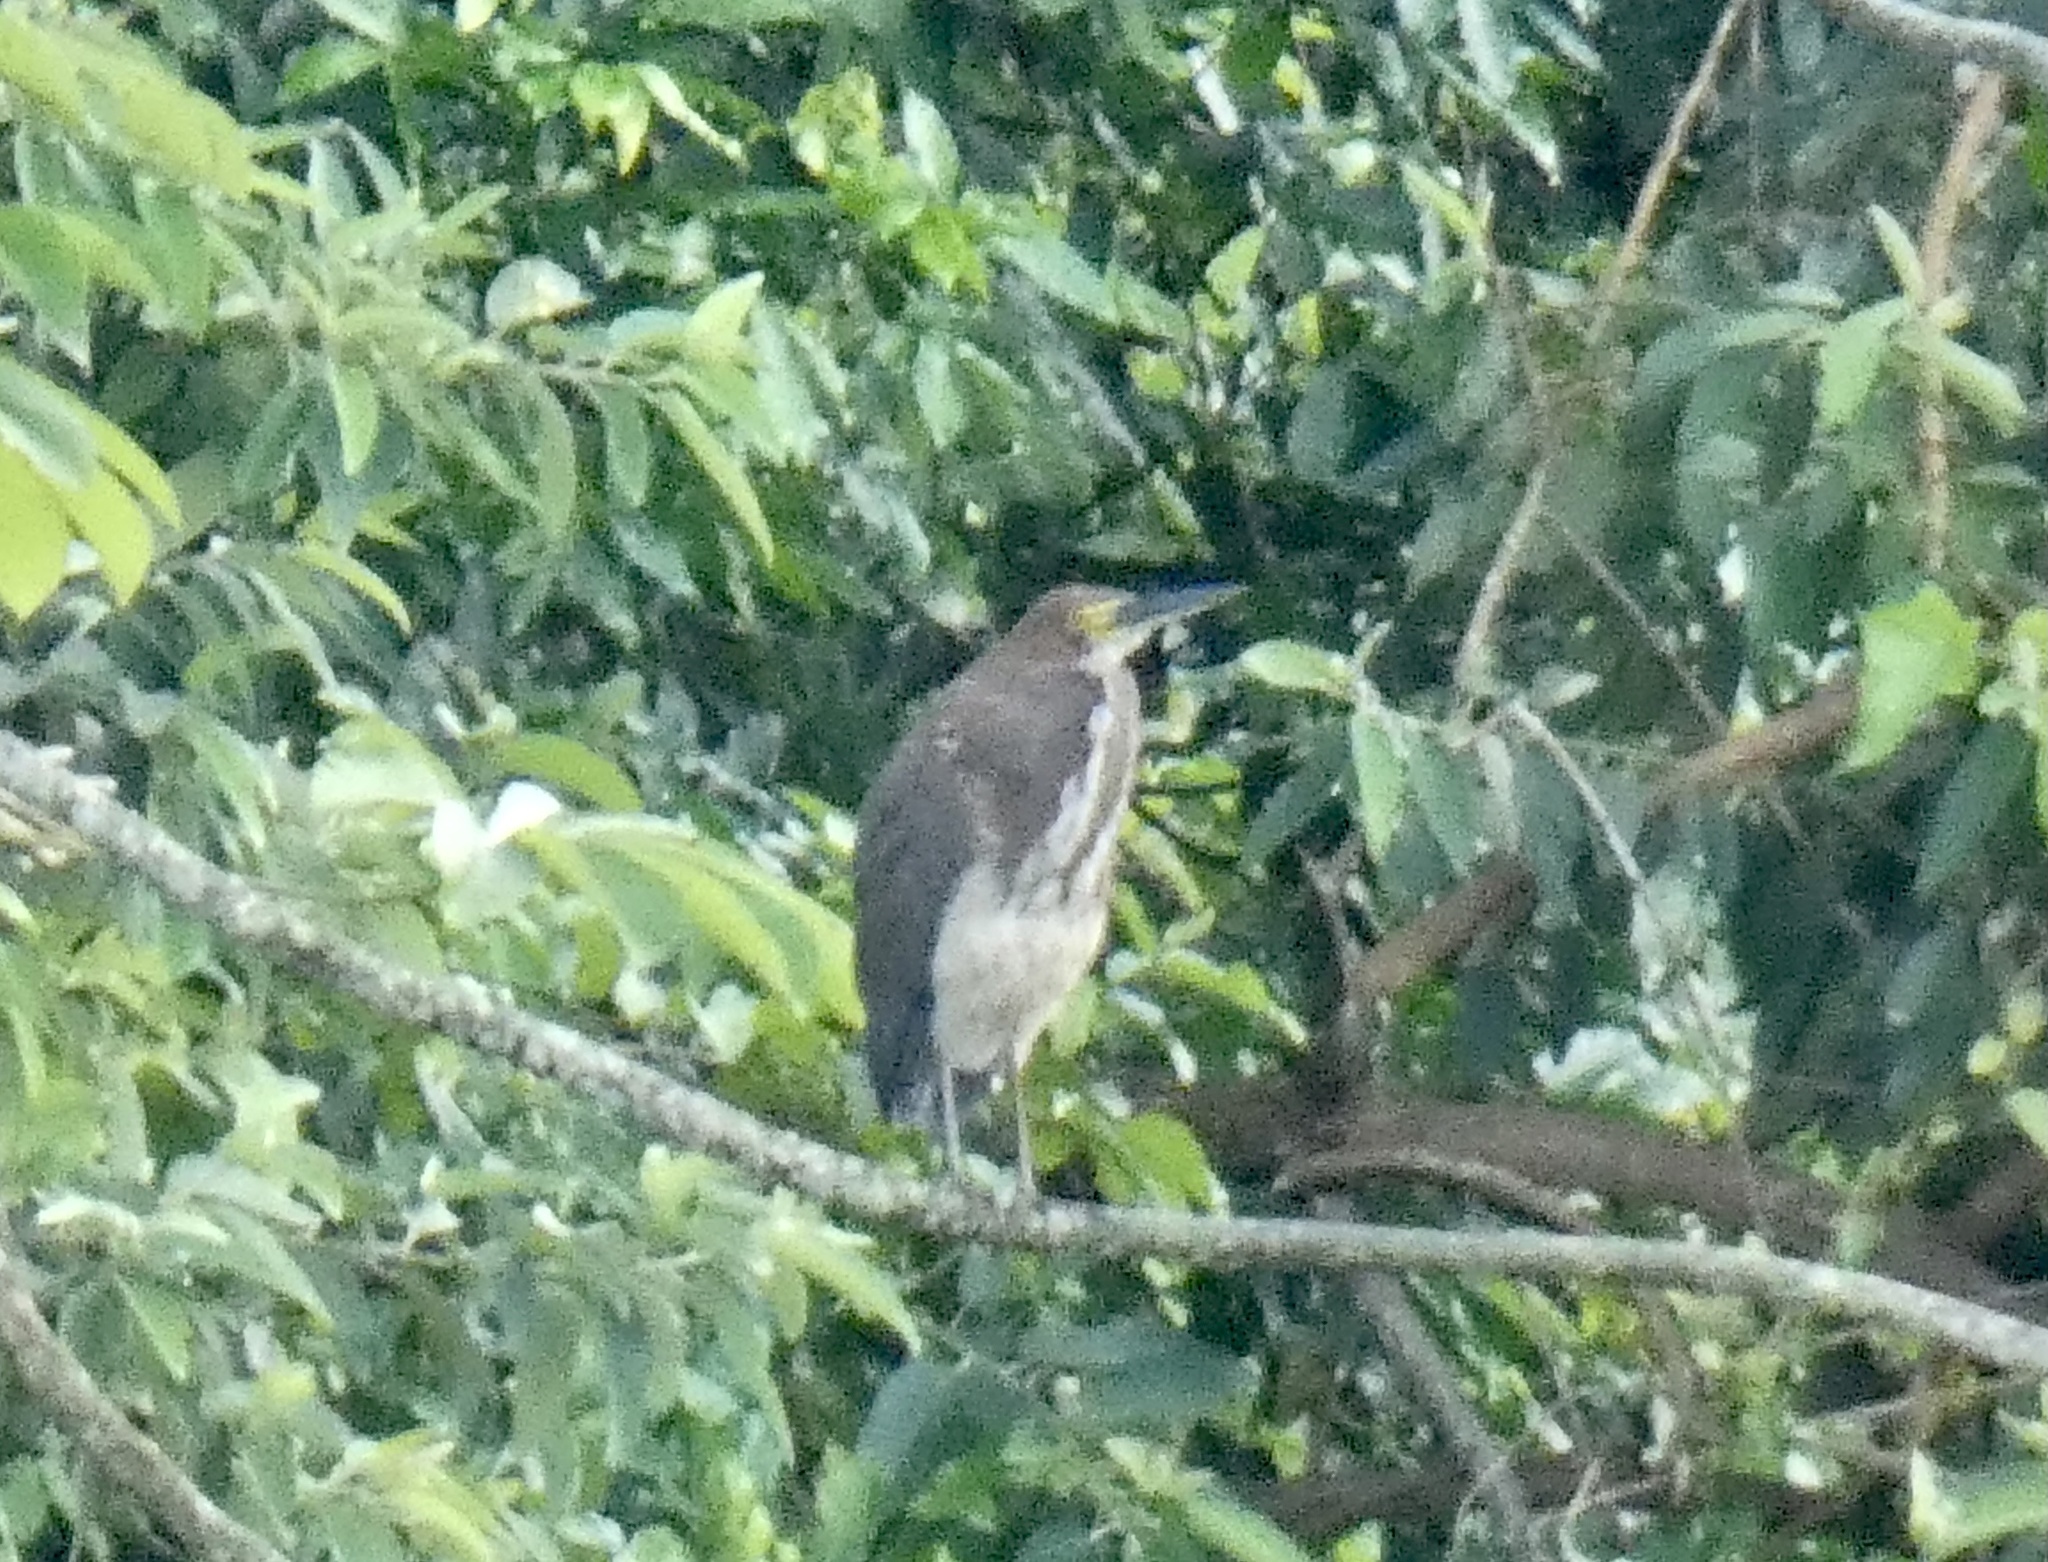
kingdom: Animalia
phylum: Chordata
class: Aves
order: Pelecaniformes
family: Ardeidae
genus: Tigrisoma
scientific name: Tigrisoma lineatum
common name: Rufescent tiger-heron
